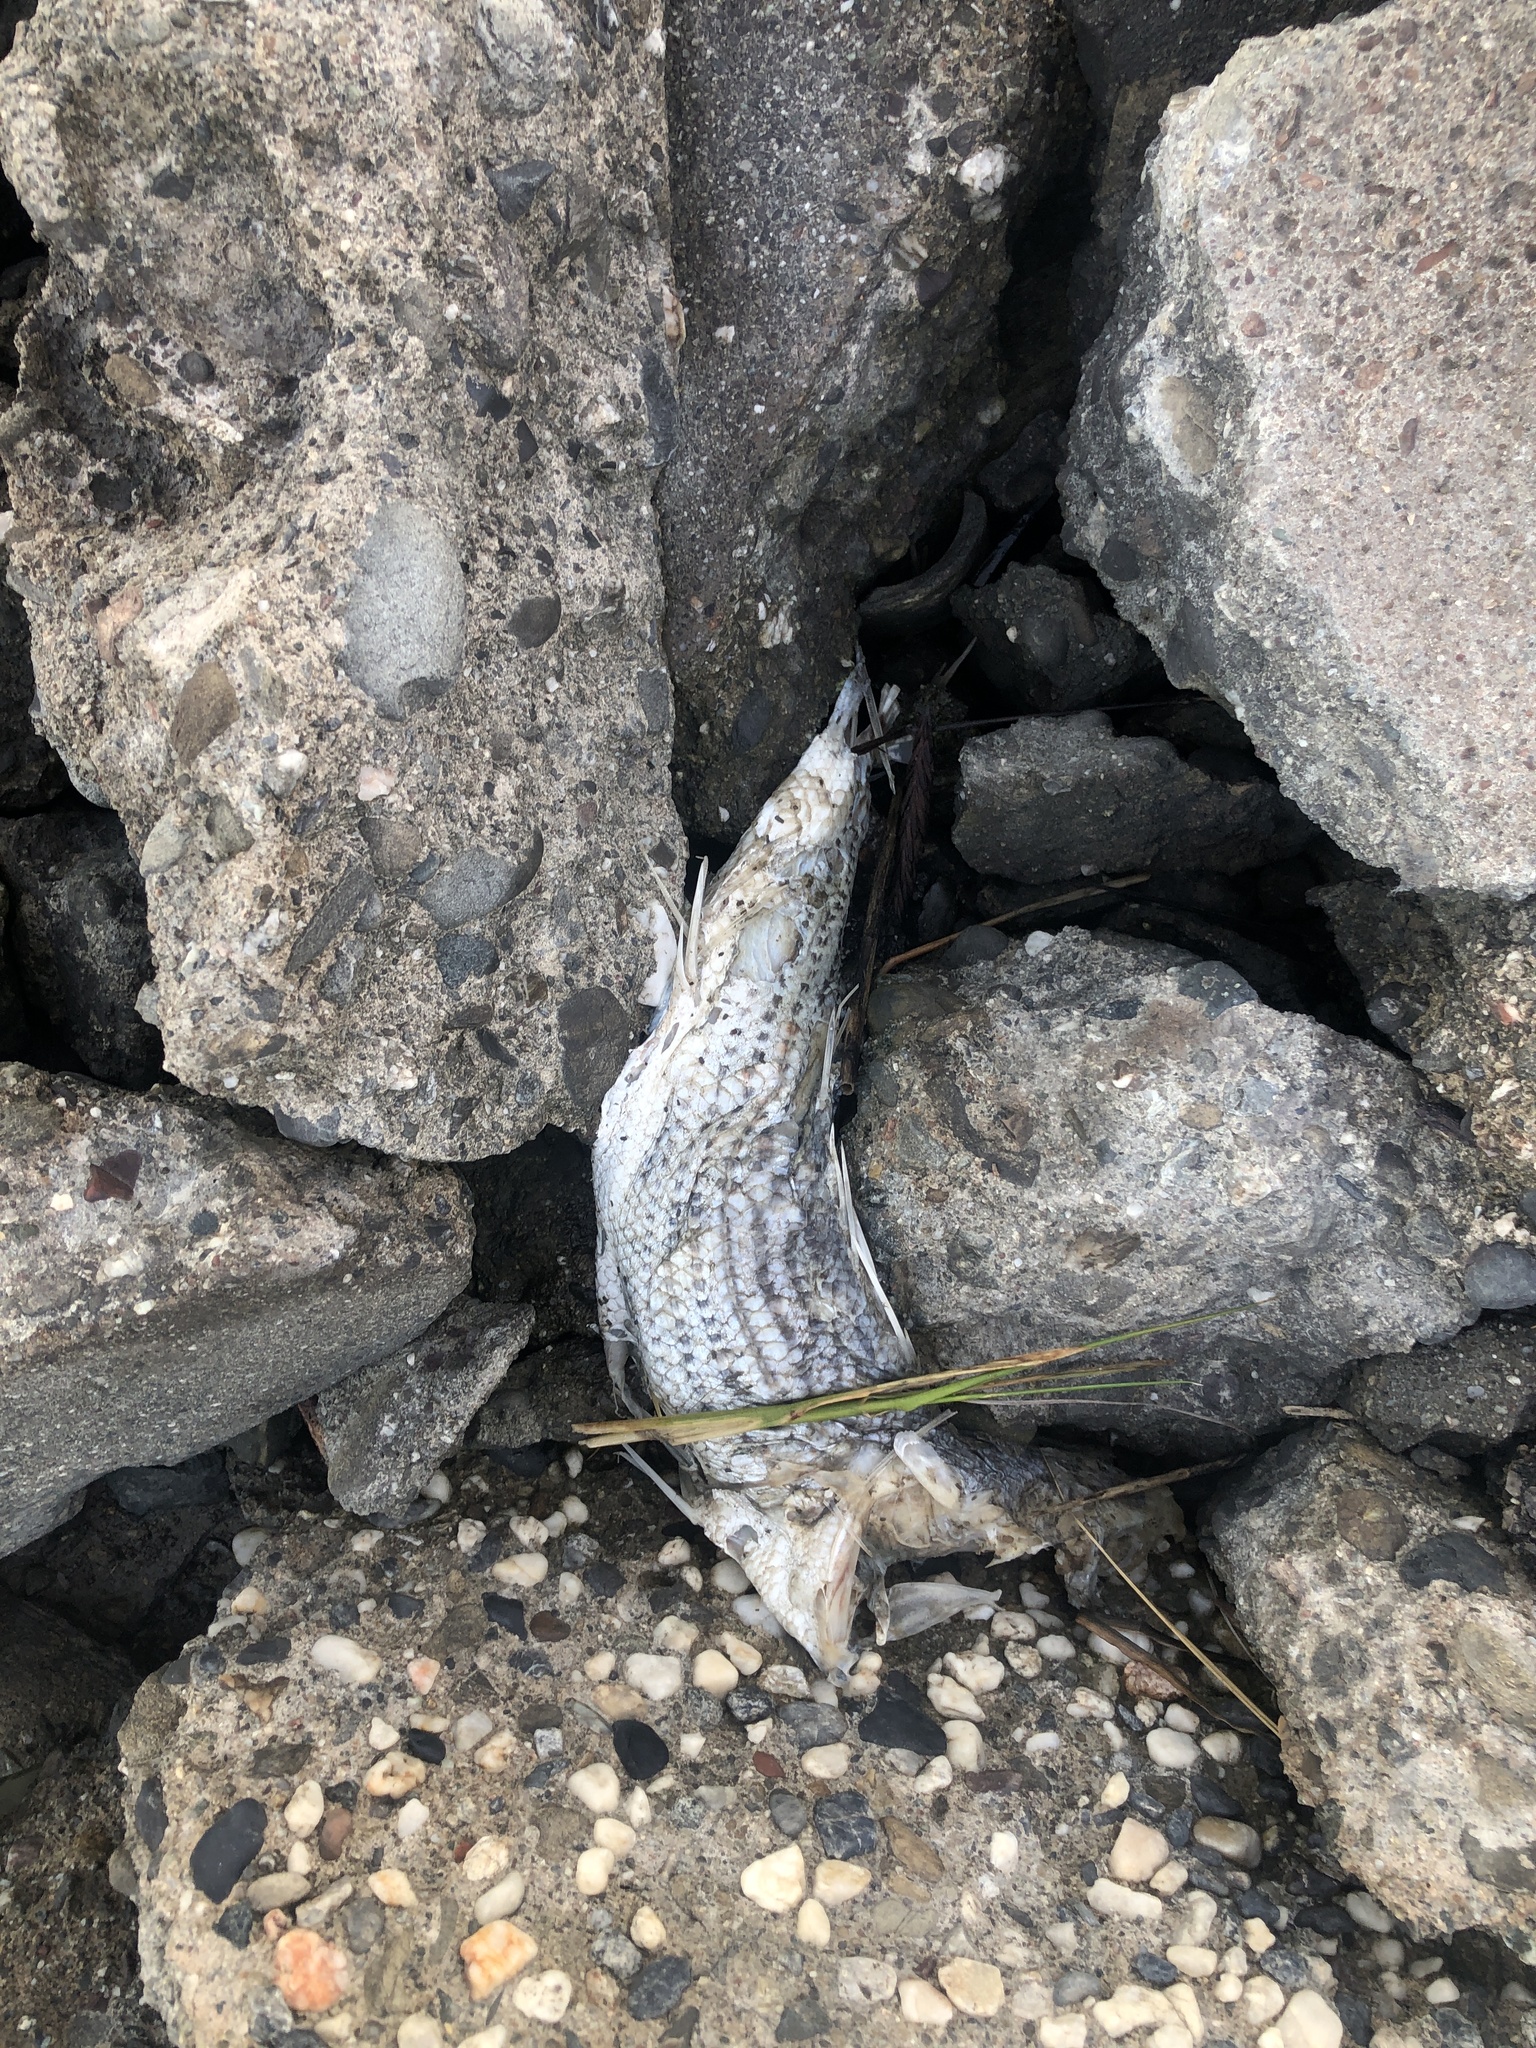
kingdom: Animalia
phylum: Chordata
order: Perciformes
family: Moronidae
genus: Morone
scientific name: Morone saxatilis
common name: Striped bass
